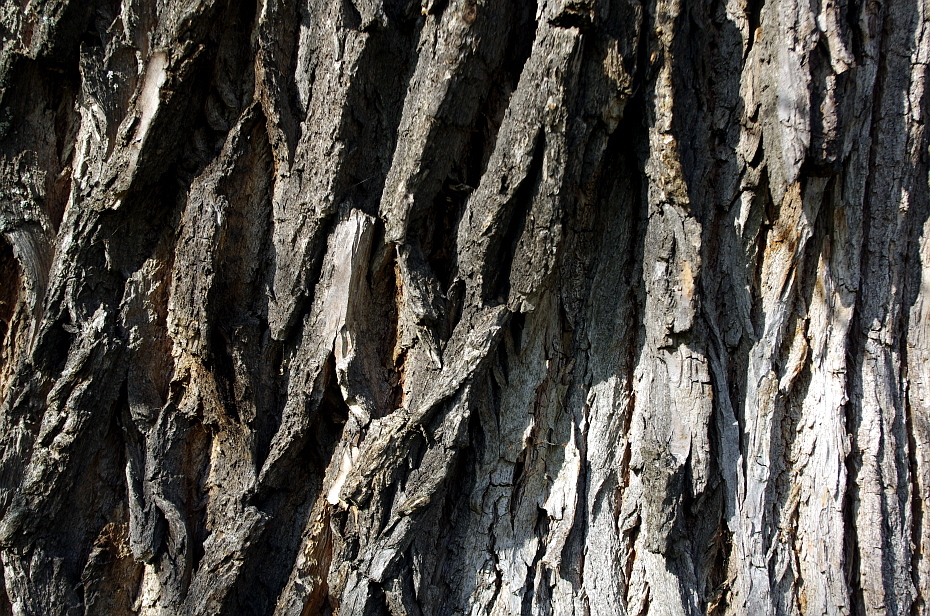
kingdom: Plantae
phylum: Tracheophyta
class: Magnoliopsida
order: Malpighiales
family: Salicaceae
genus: Salix
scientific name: Salix fragilis
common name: Crack willow
